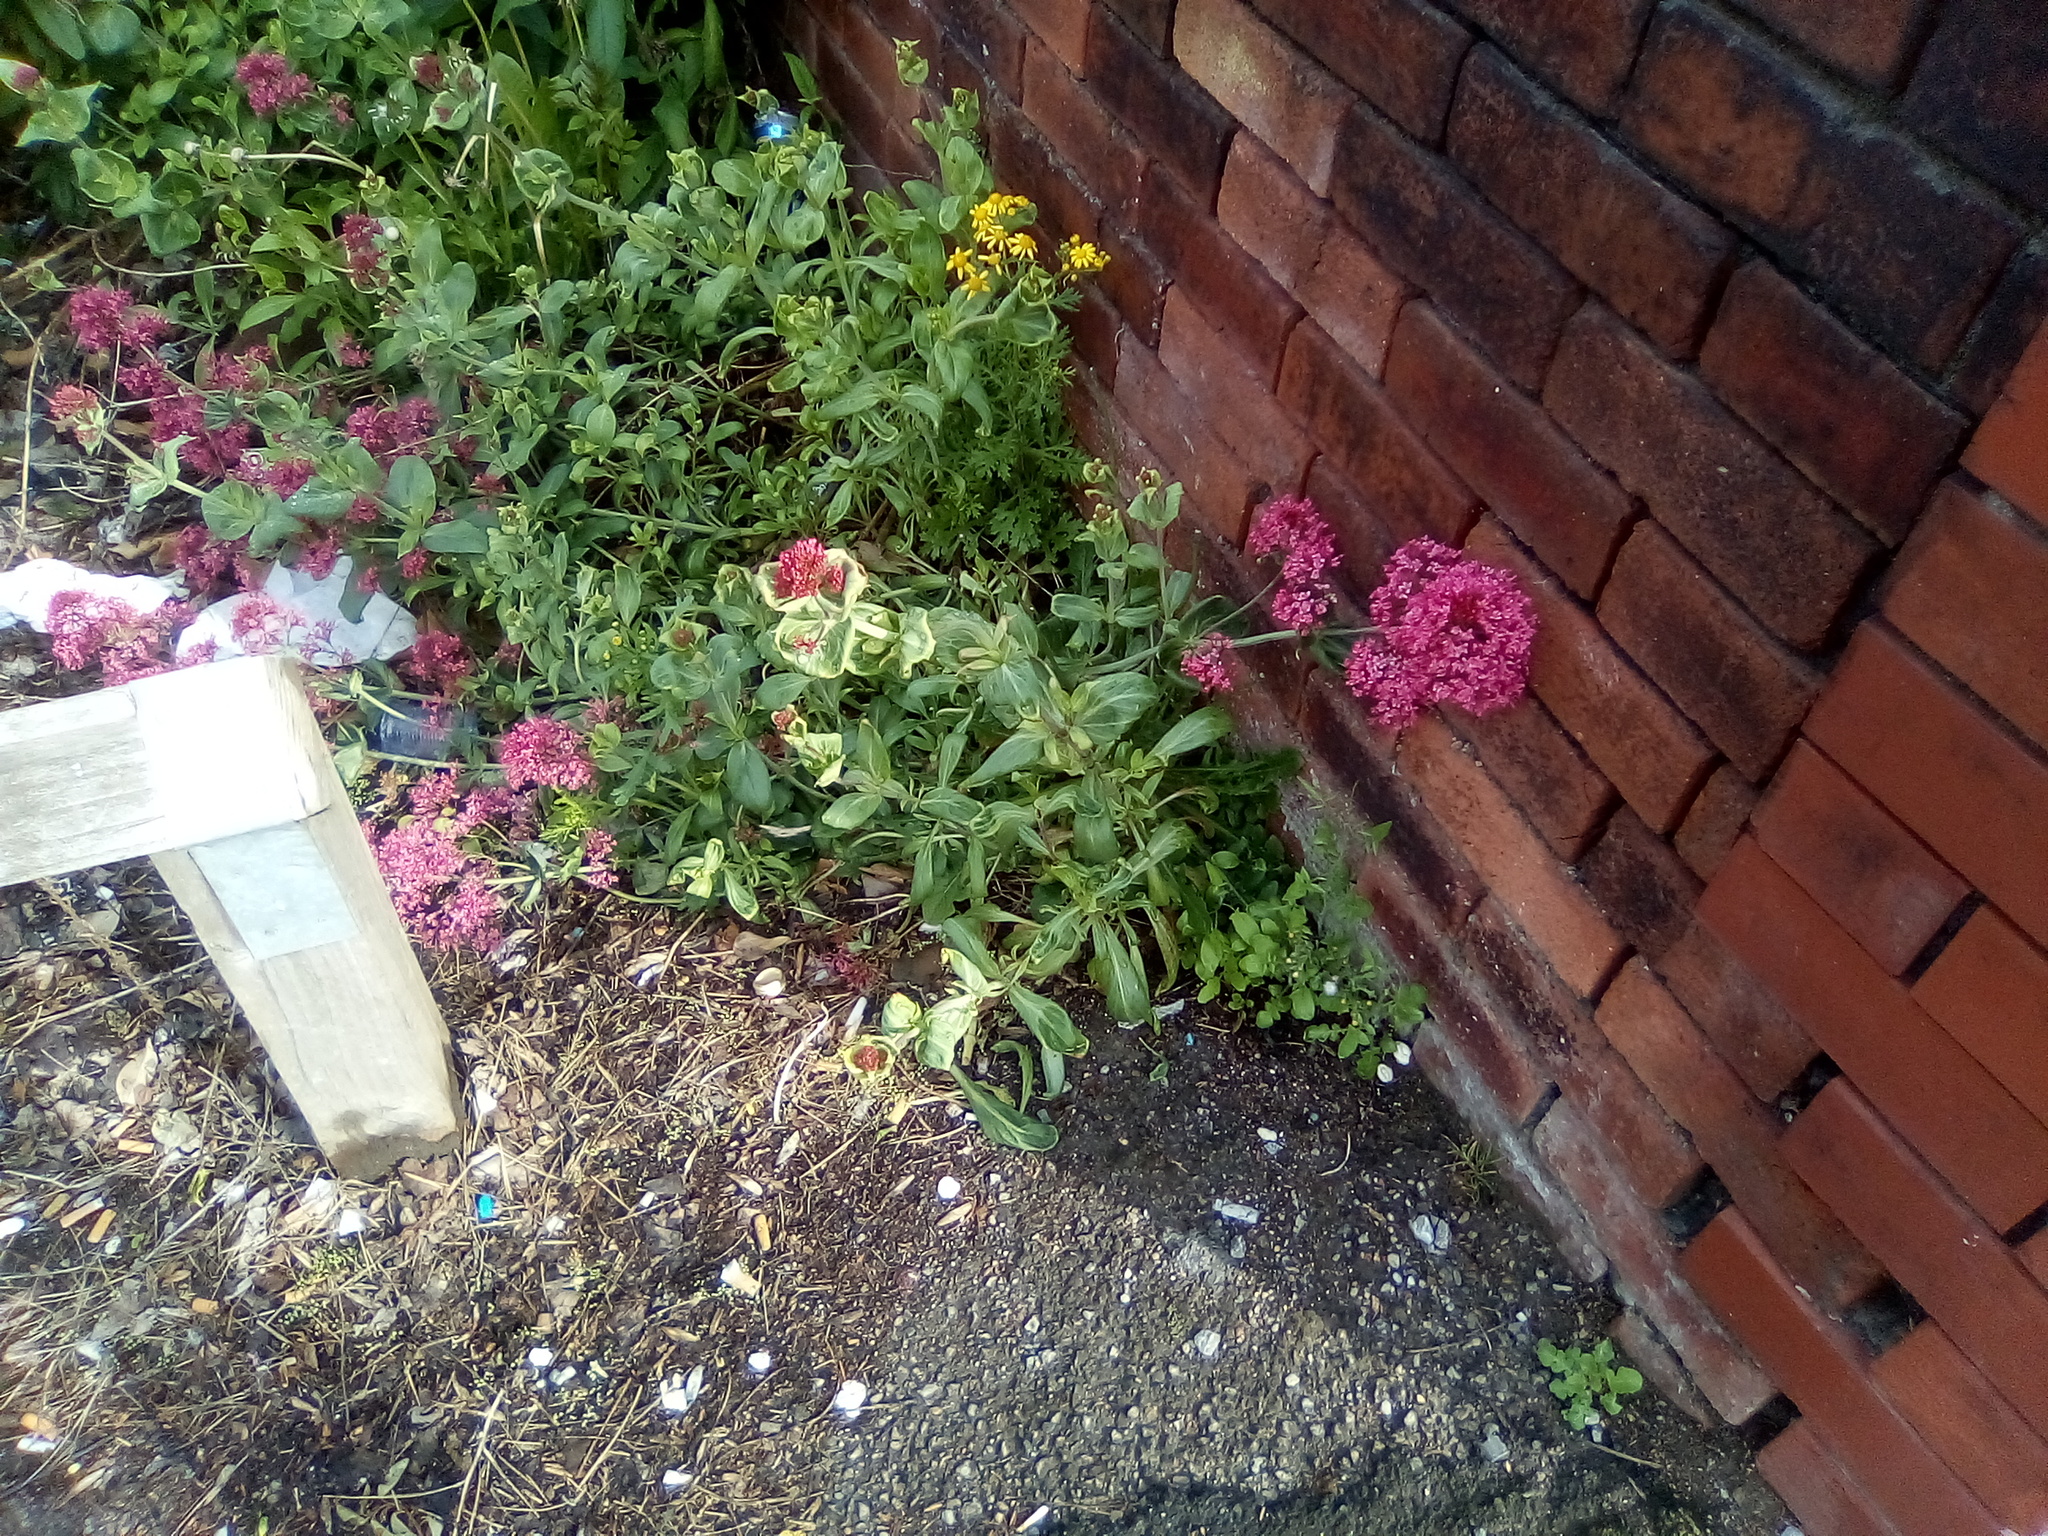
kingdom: Plantae
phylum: Tracheophyta
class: Magnoliopsida
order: Dipsacales
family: Caprifoliaceae
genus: Centranthus
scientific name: Centranthus ruber
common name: Red valerian
